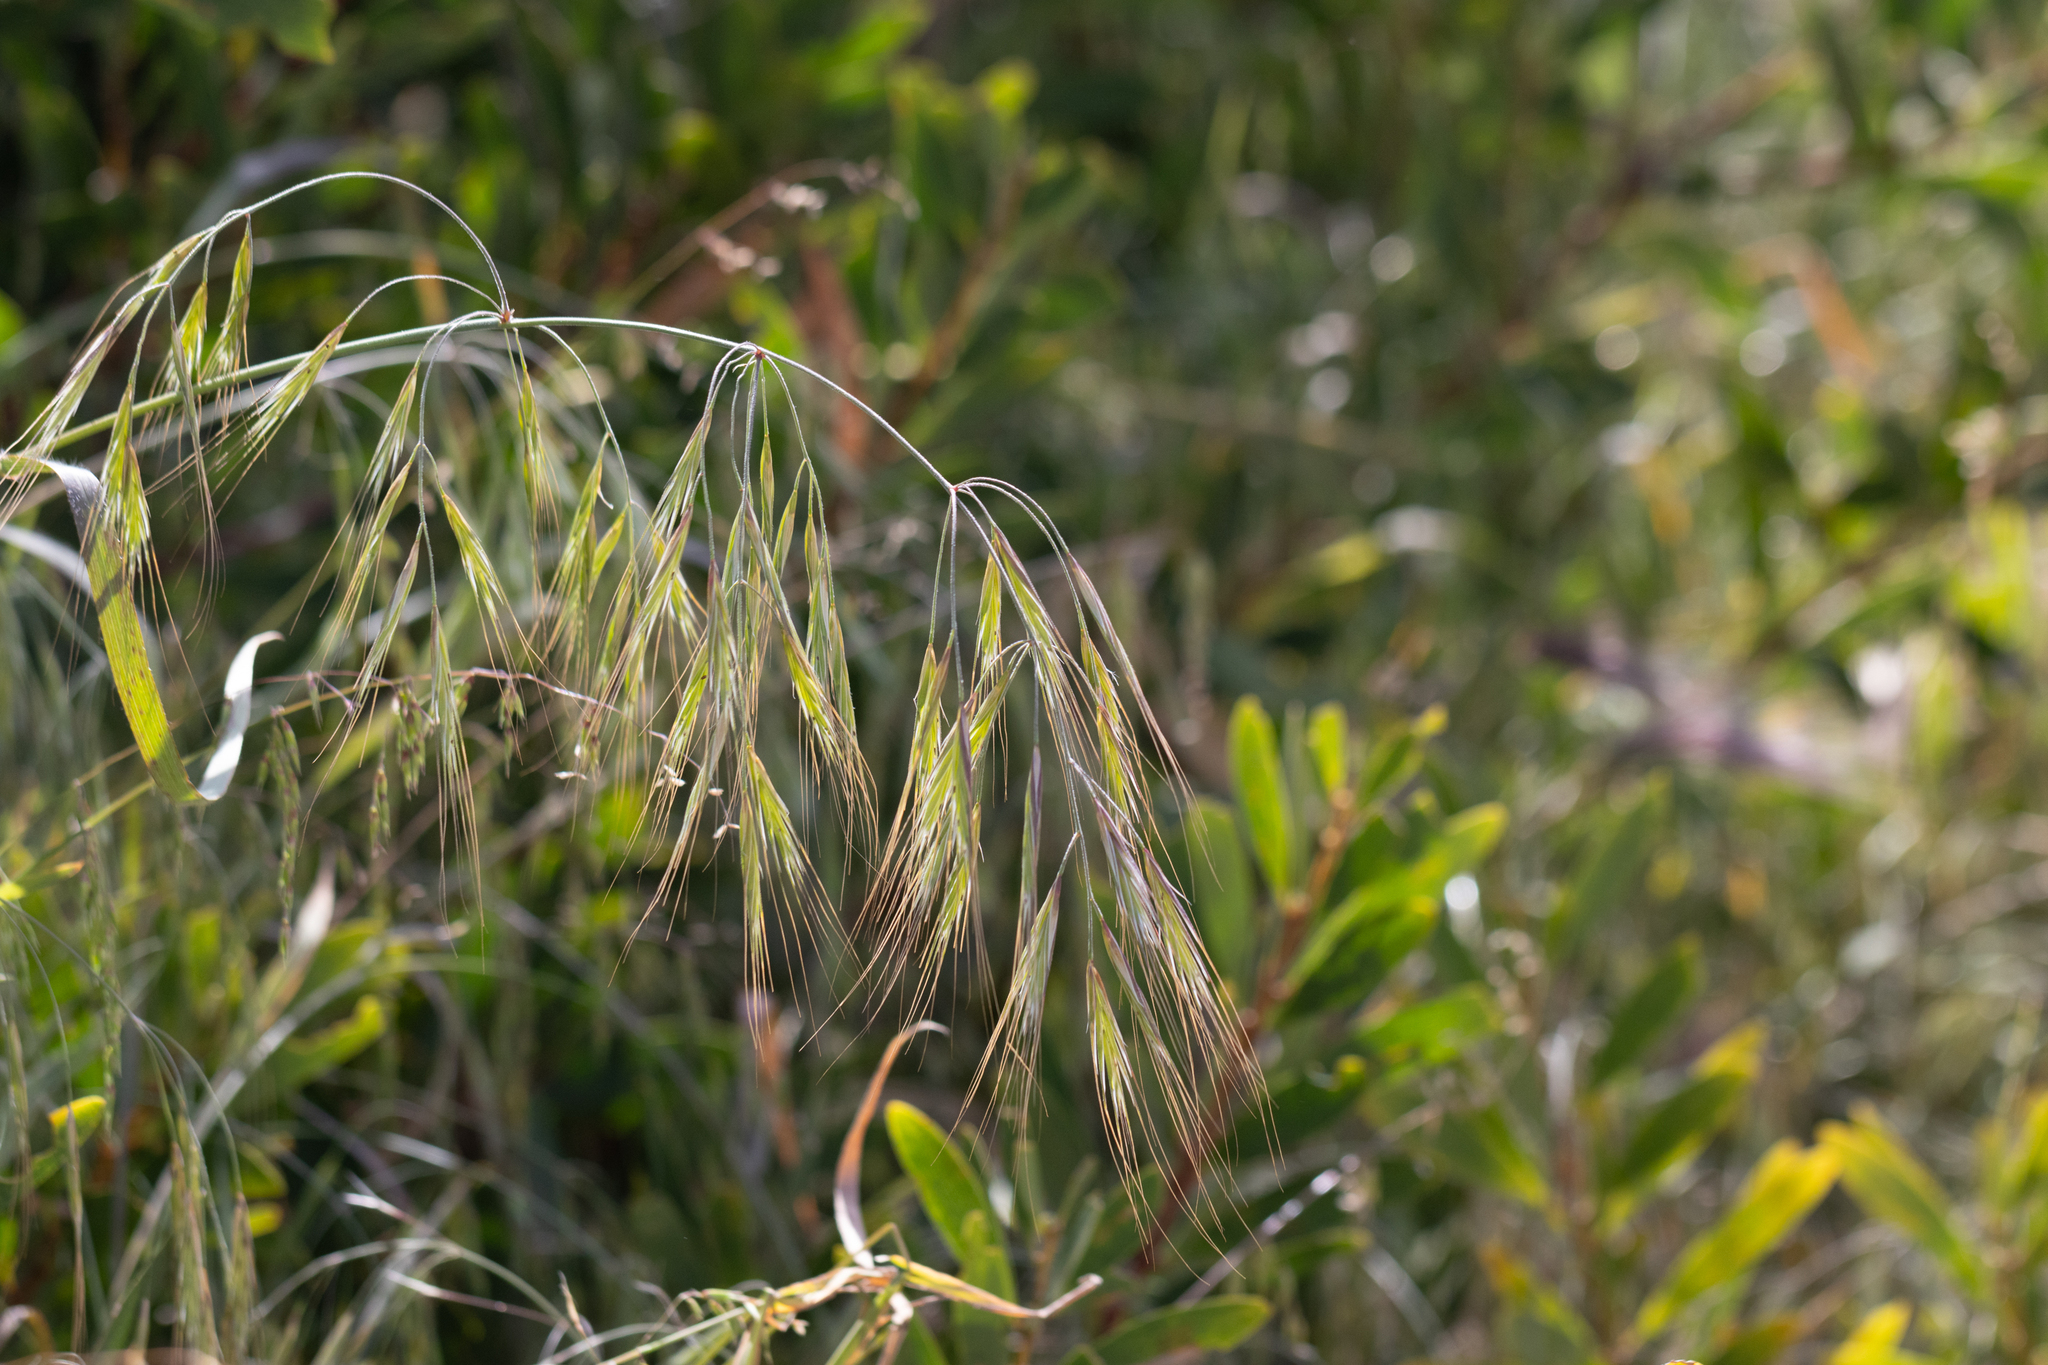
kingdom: Plantae
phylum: Tracheophyta
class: Liliopsida
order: Poales
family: Poaceae
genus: Bromus
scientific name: Bromus diandrus
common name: Ripgut brome
